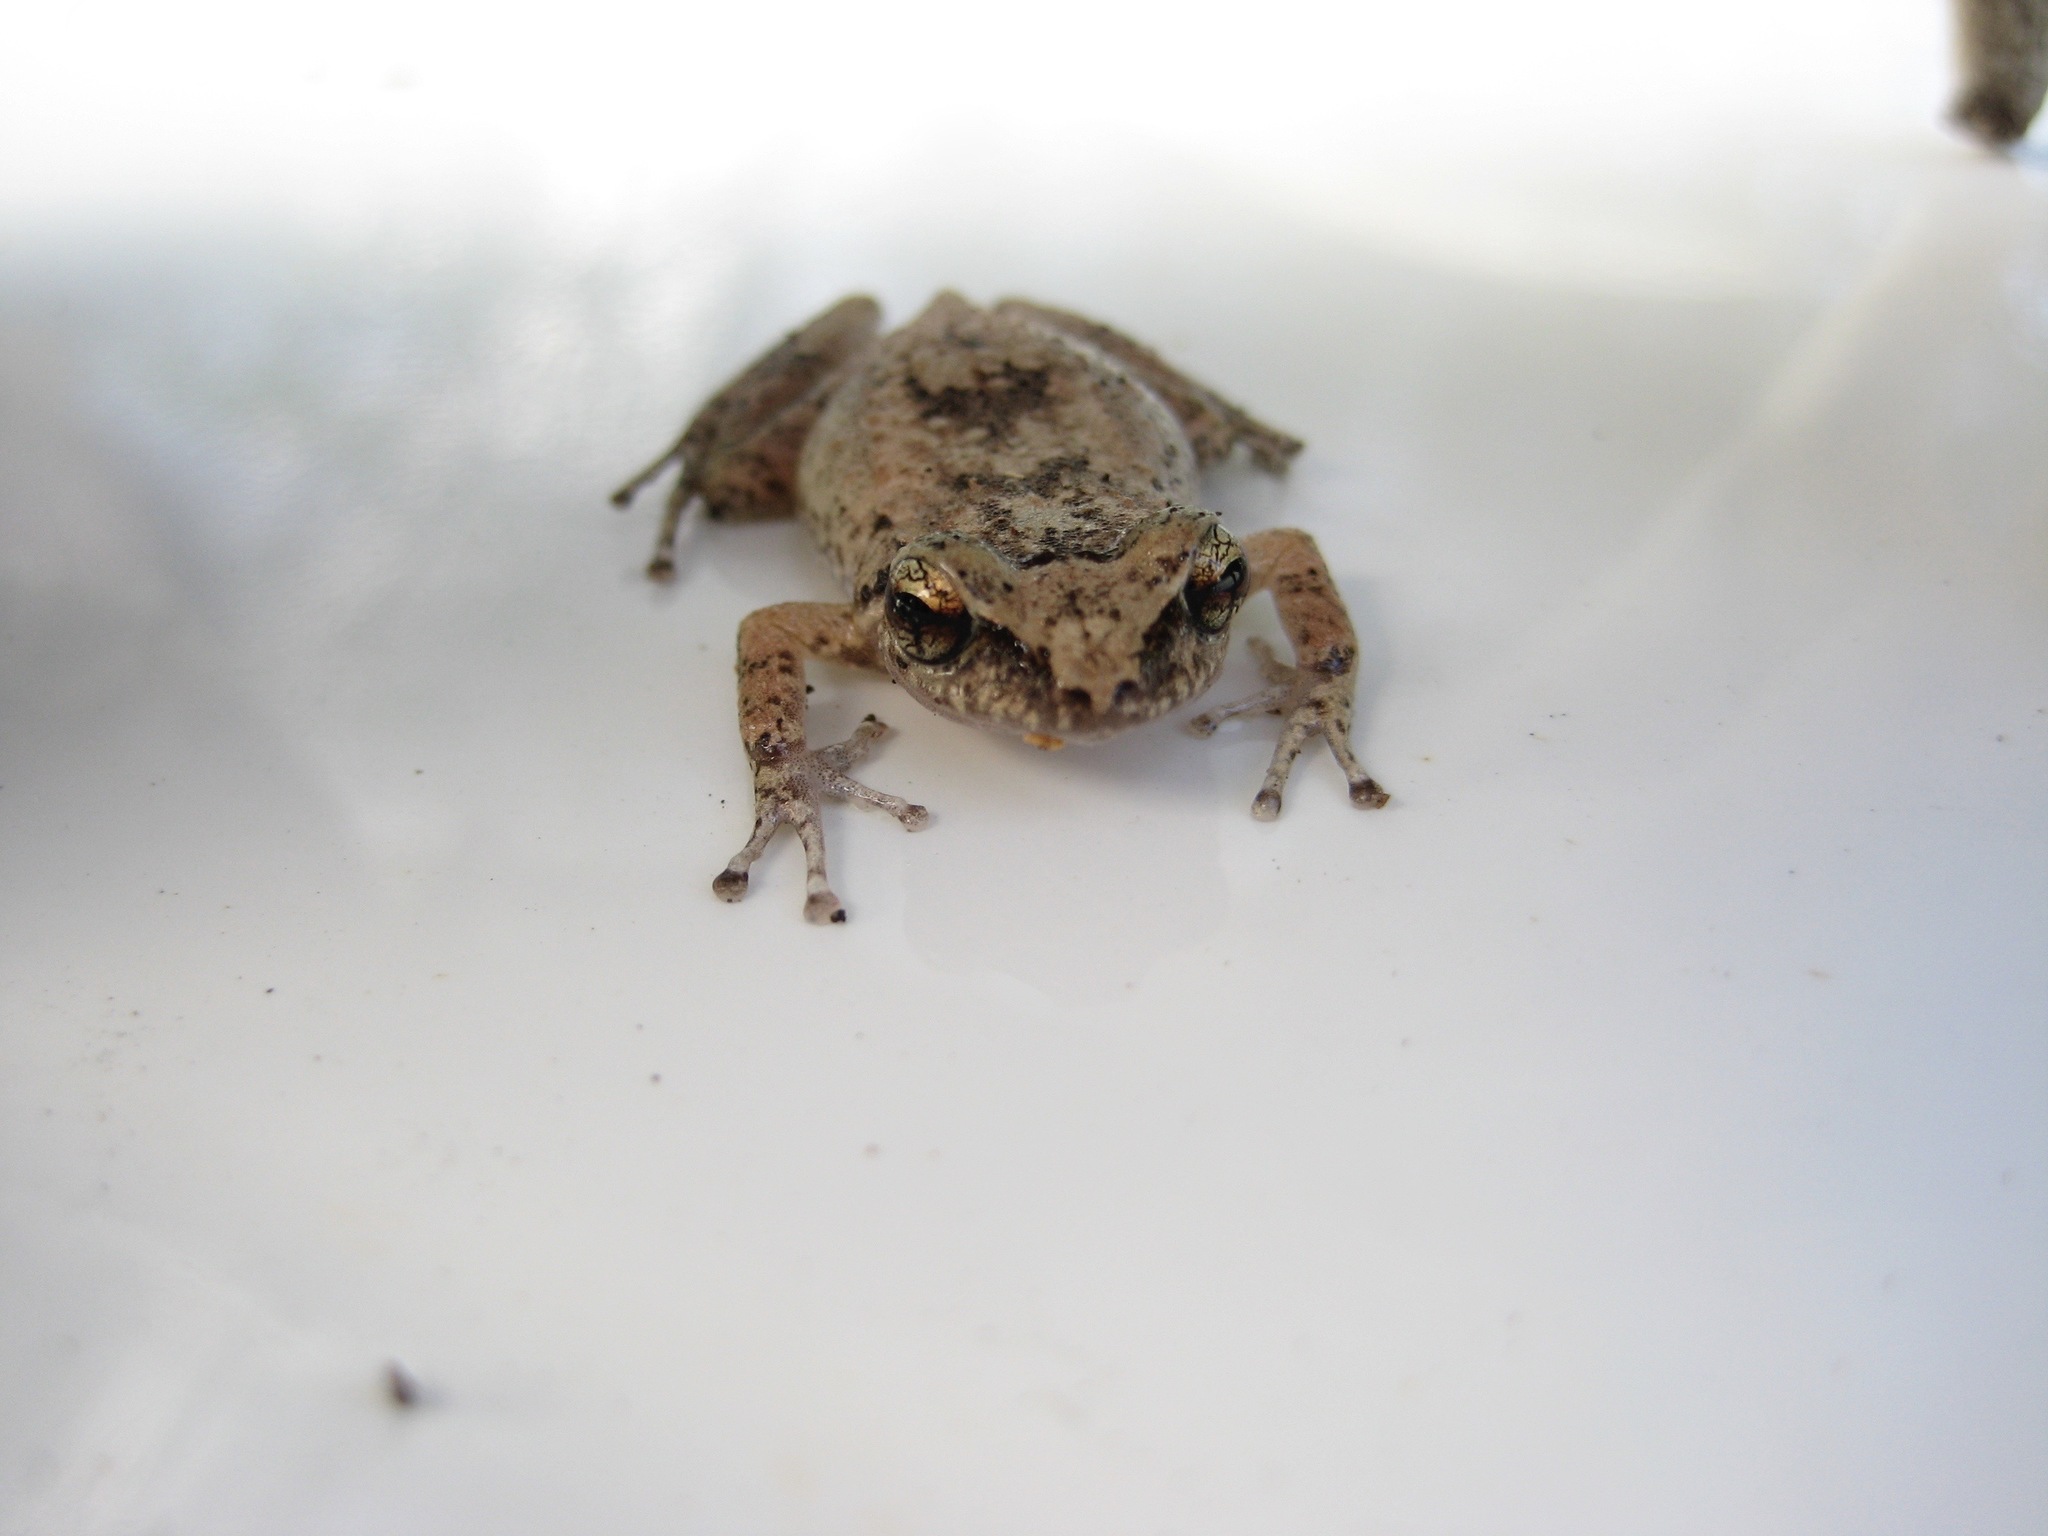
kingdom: Animalia
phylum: Chordata
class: Amphibia
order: Anura
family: Eleutherodactylidae
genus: Eleutherodactylus
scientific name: Eleutherodactylus johnstonei
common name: Johnstone's robber frog
